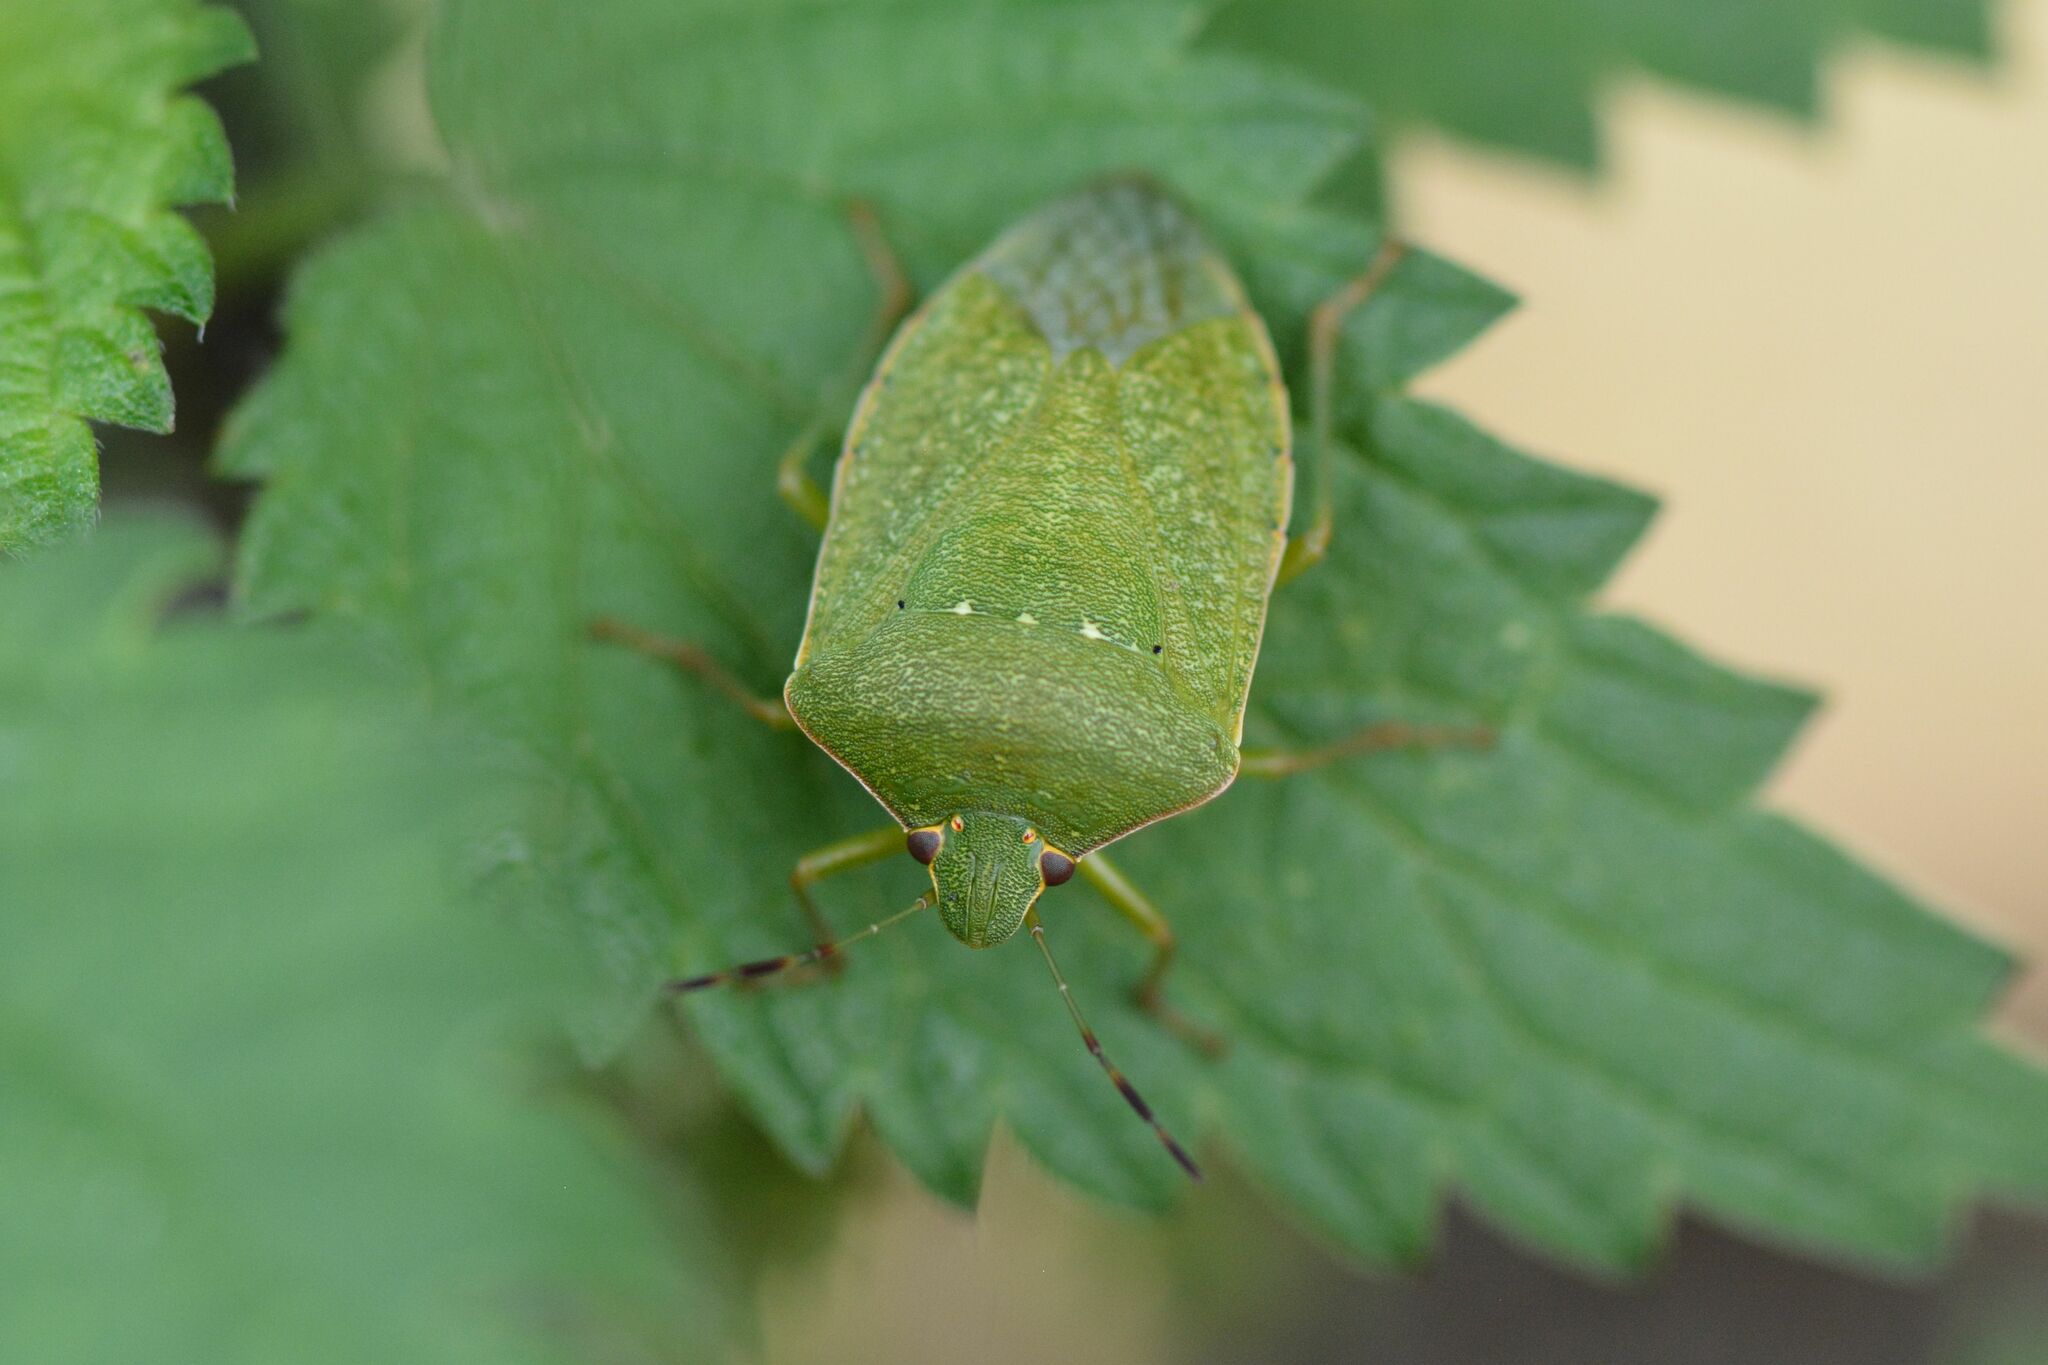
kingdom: Animalia
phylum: Arthropoda
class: Insecta
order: Hemiptera
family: Pentatomidae
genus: Nezara
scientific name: Nezara viridula
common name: Southern green stink bug
